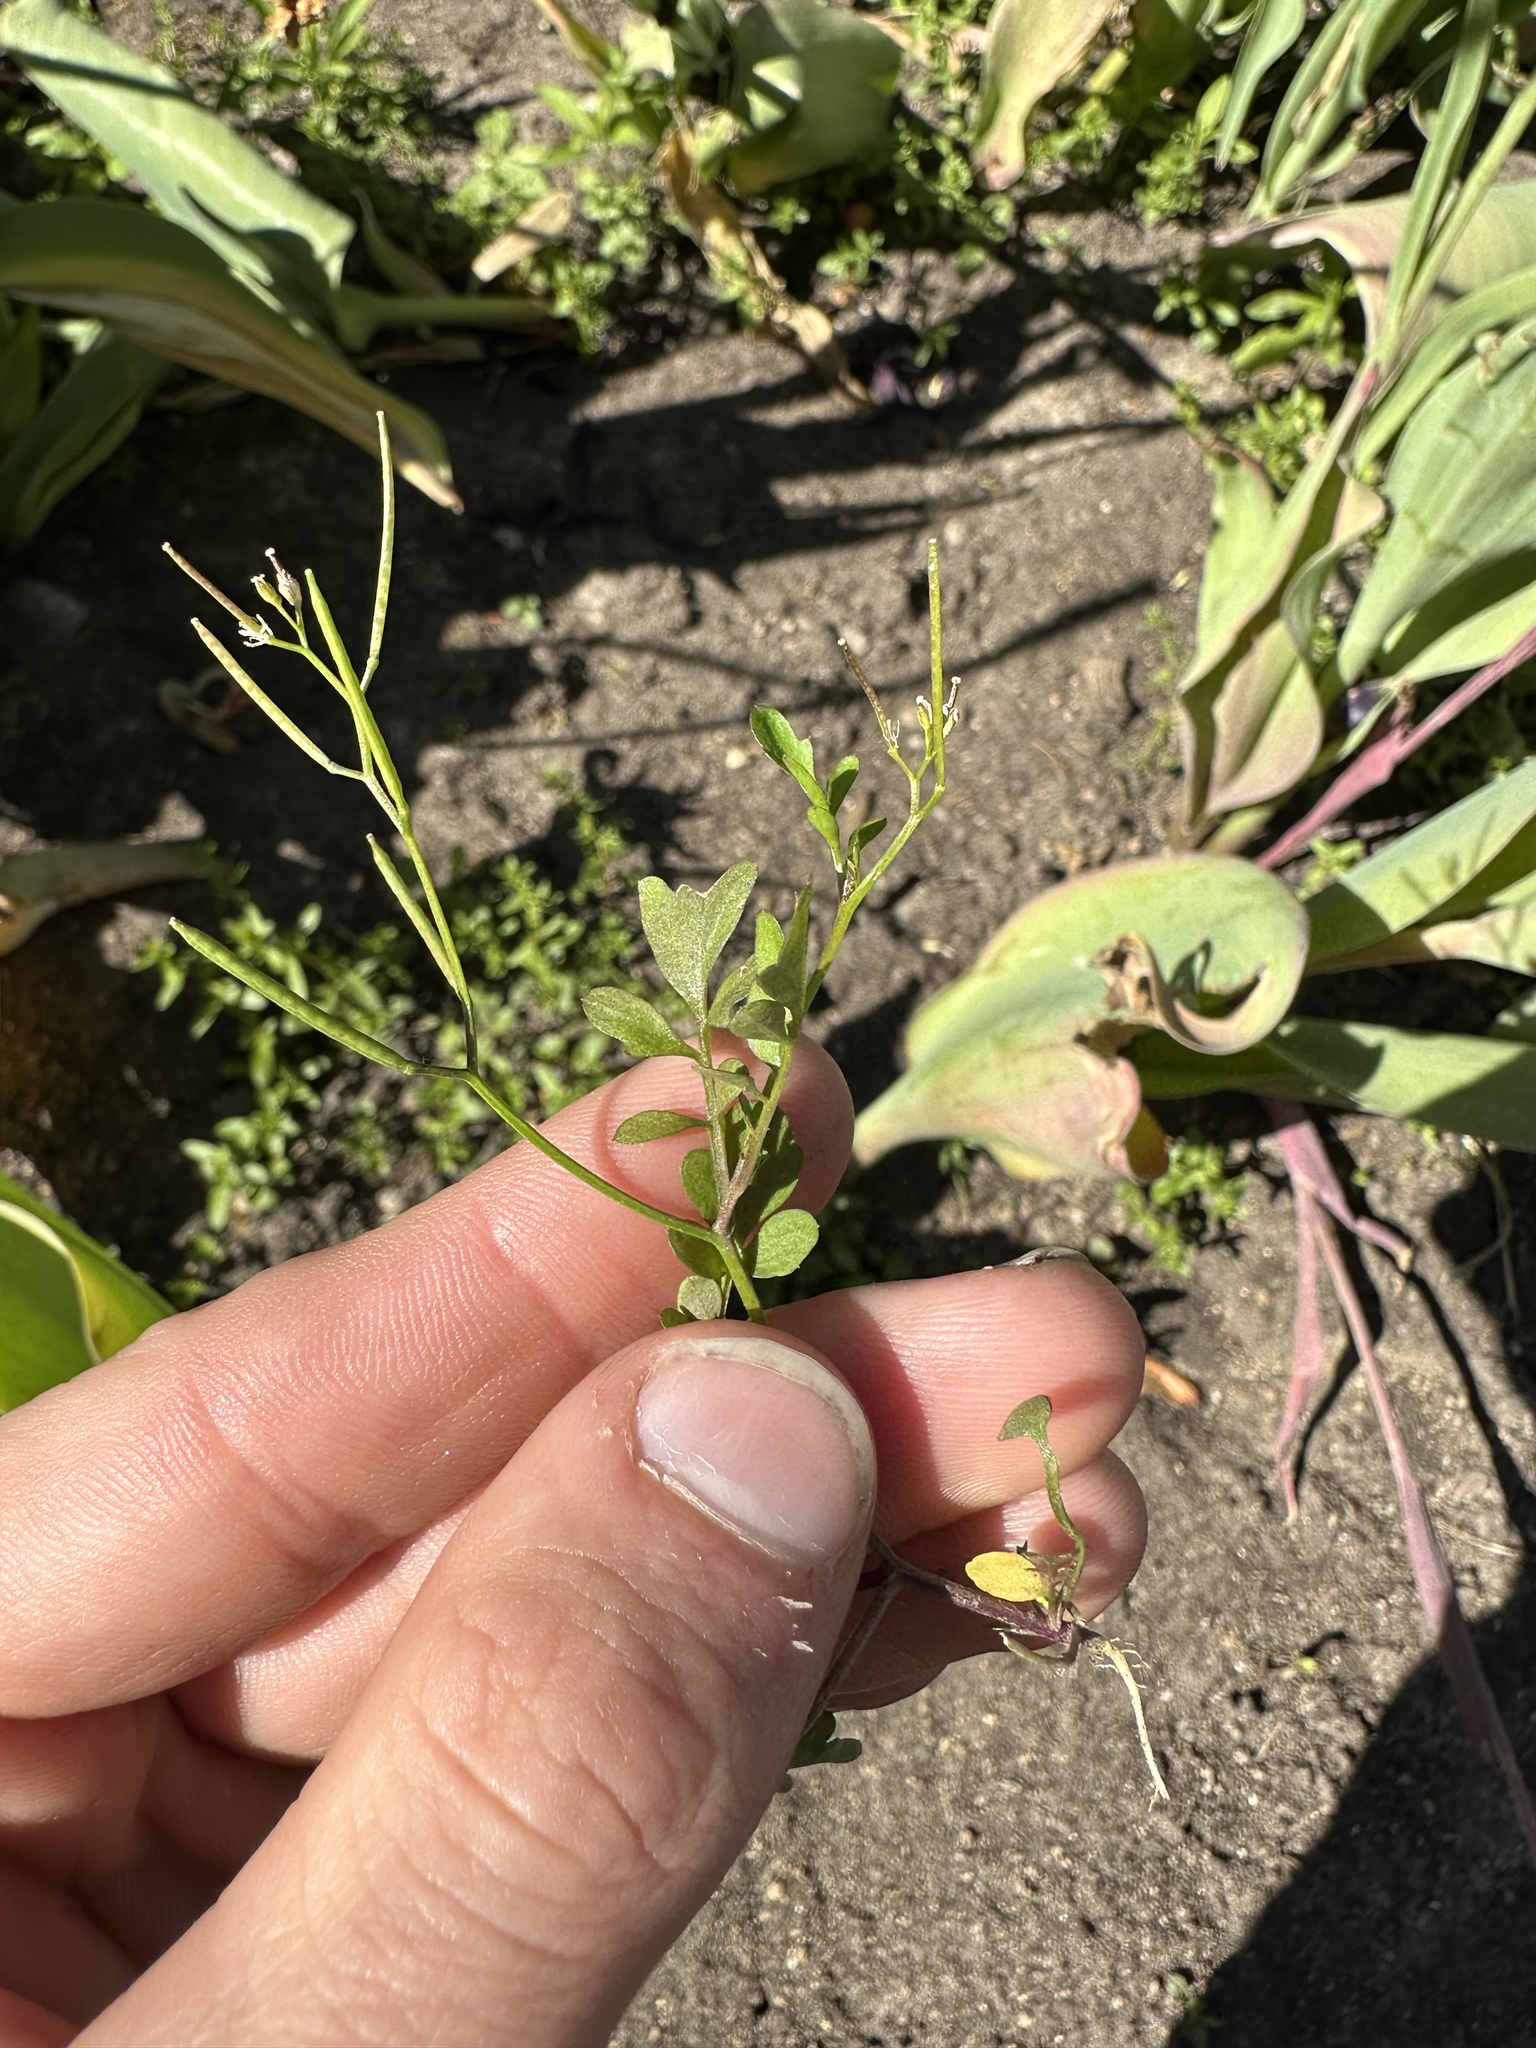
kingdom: Plantae
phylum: Tracheophyta
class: Magnoliopsida
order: Brassicales
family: Brassicaceae
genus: Cardamine
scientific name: Cardamine hirsuta
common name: Hairy bittercress
